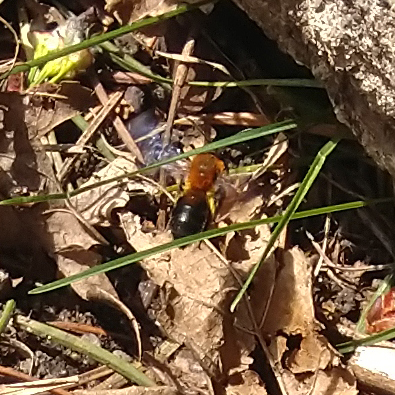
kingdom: Animalia
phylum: Arthropoda
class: Insecta
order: Hymenoptera
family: Andrenidae
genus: Andrena
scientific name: Andrena milwaukeensis
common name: Milwaukee mining bee
